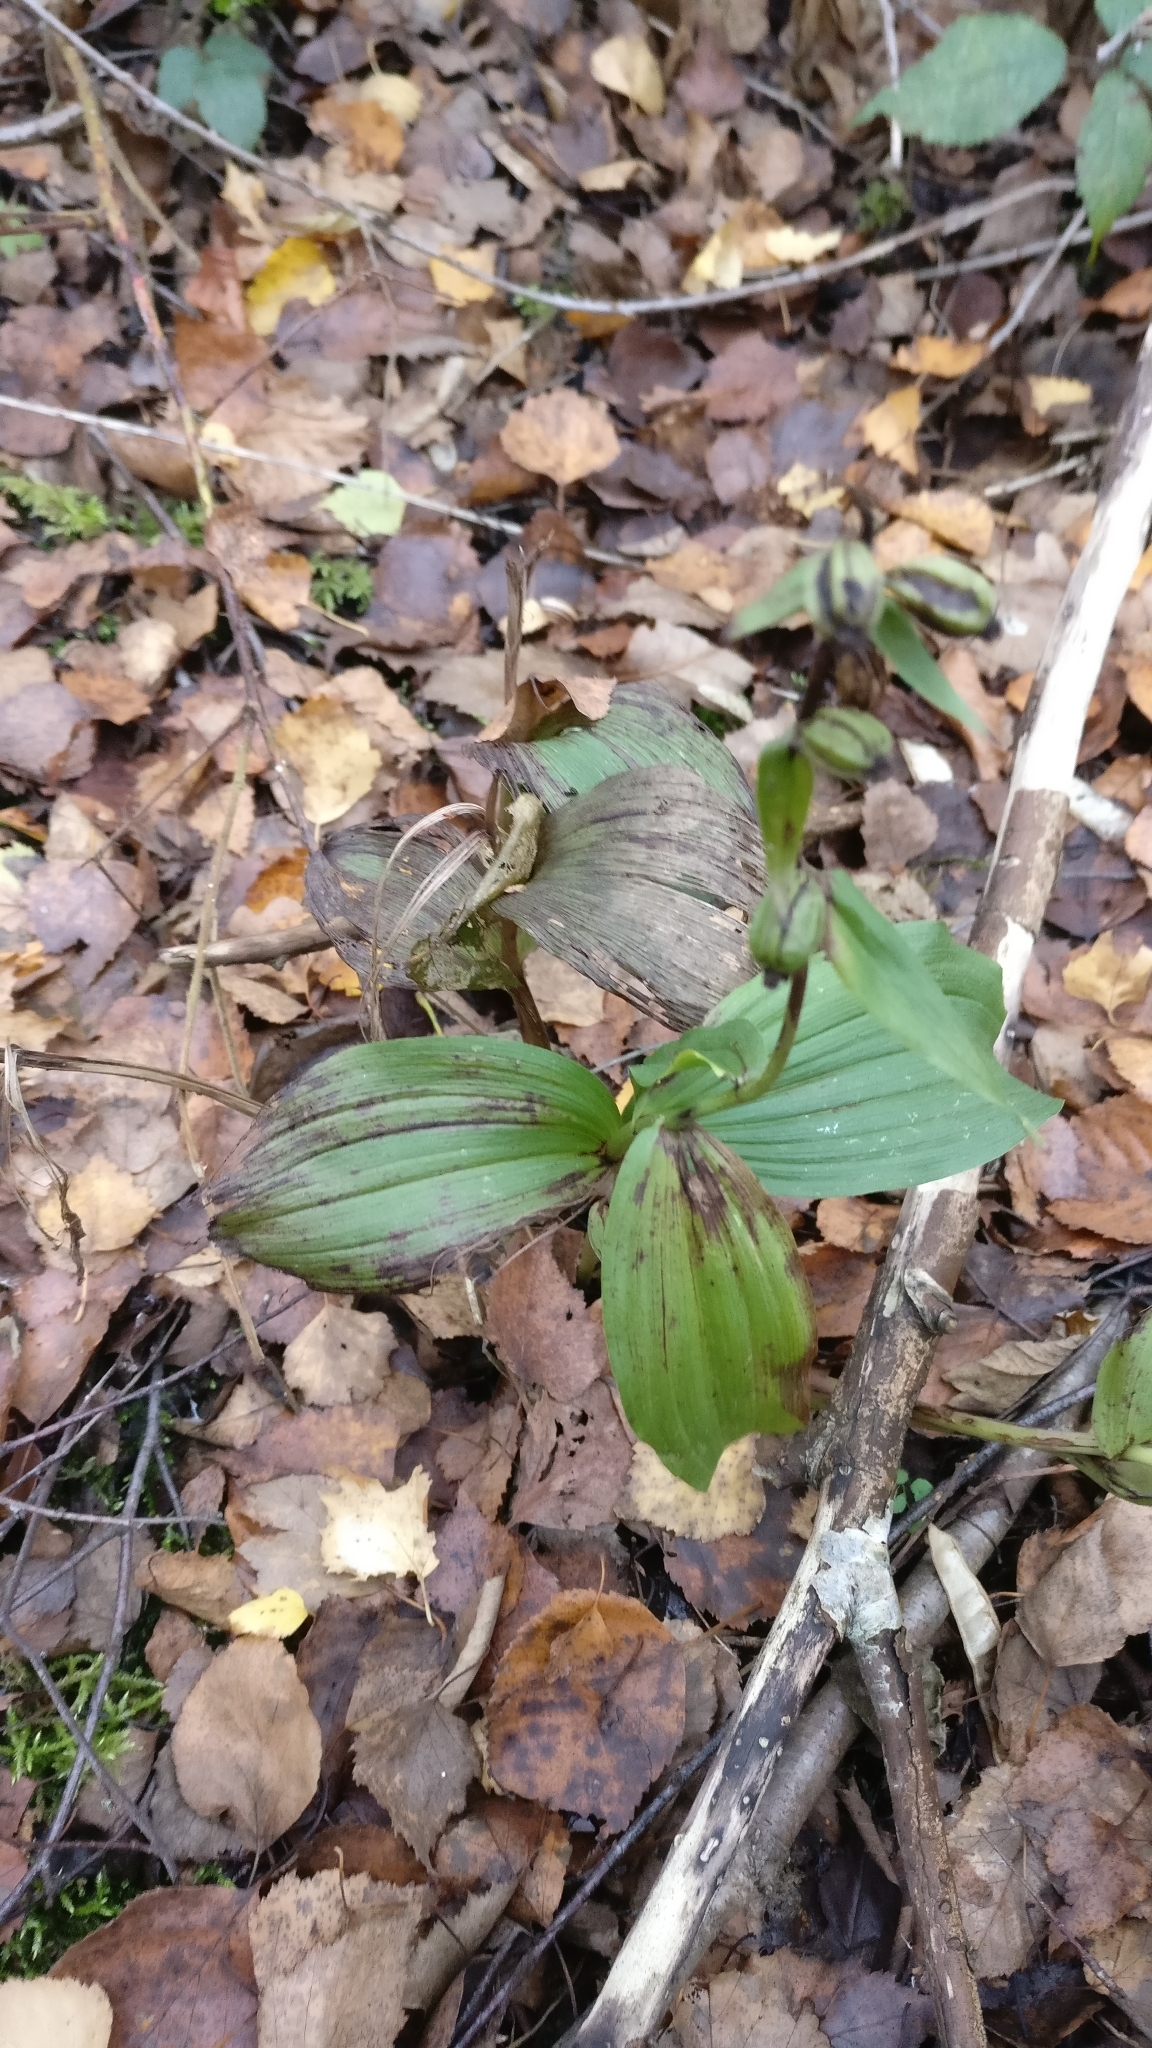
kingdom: Plantae
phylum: Tracheophyta
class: Liliopsida
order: Asparagales
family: Orchidaceae
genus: Epipactis
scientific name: Epipactis helleborine
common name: Broad-leaved helleborine
